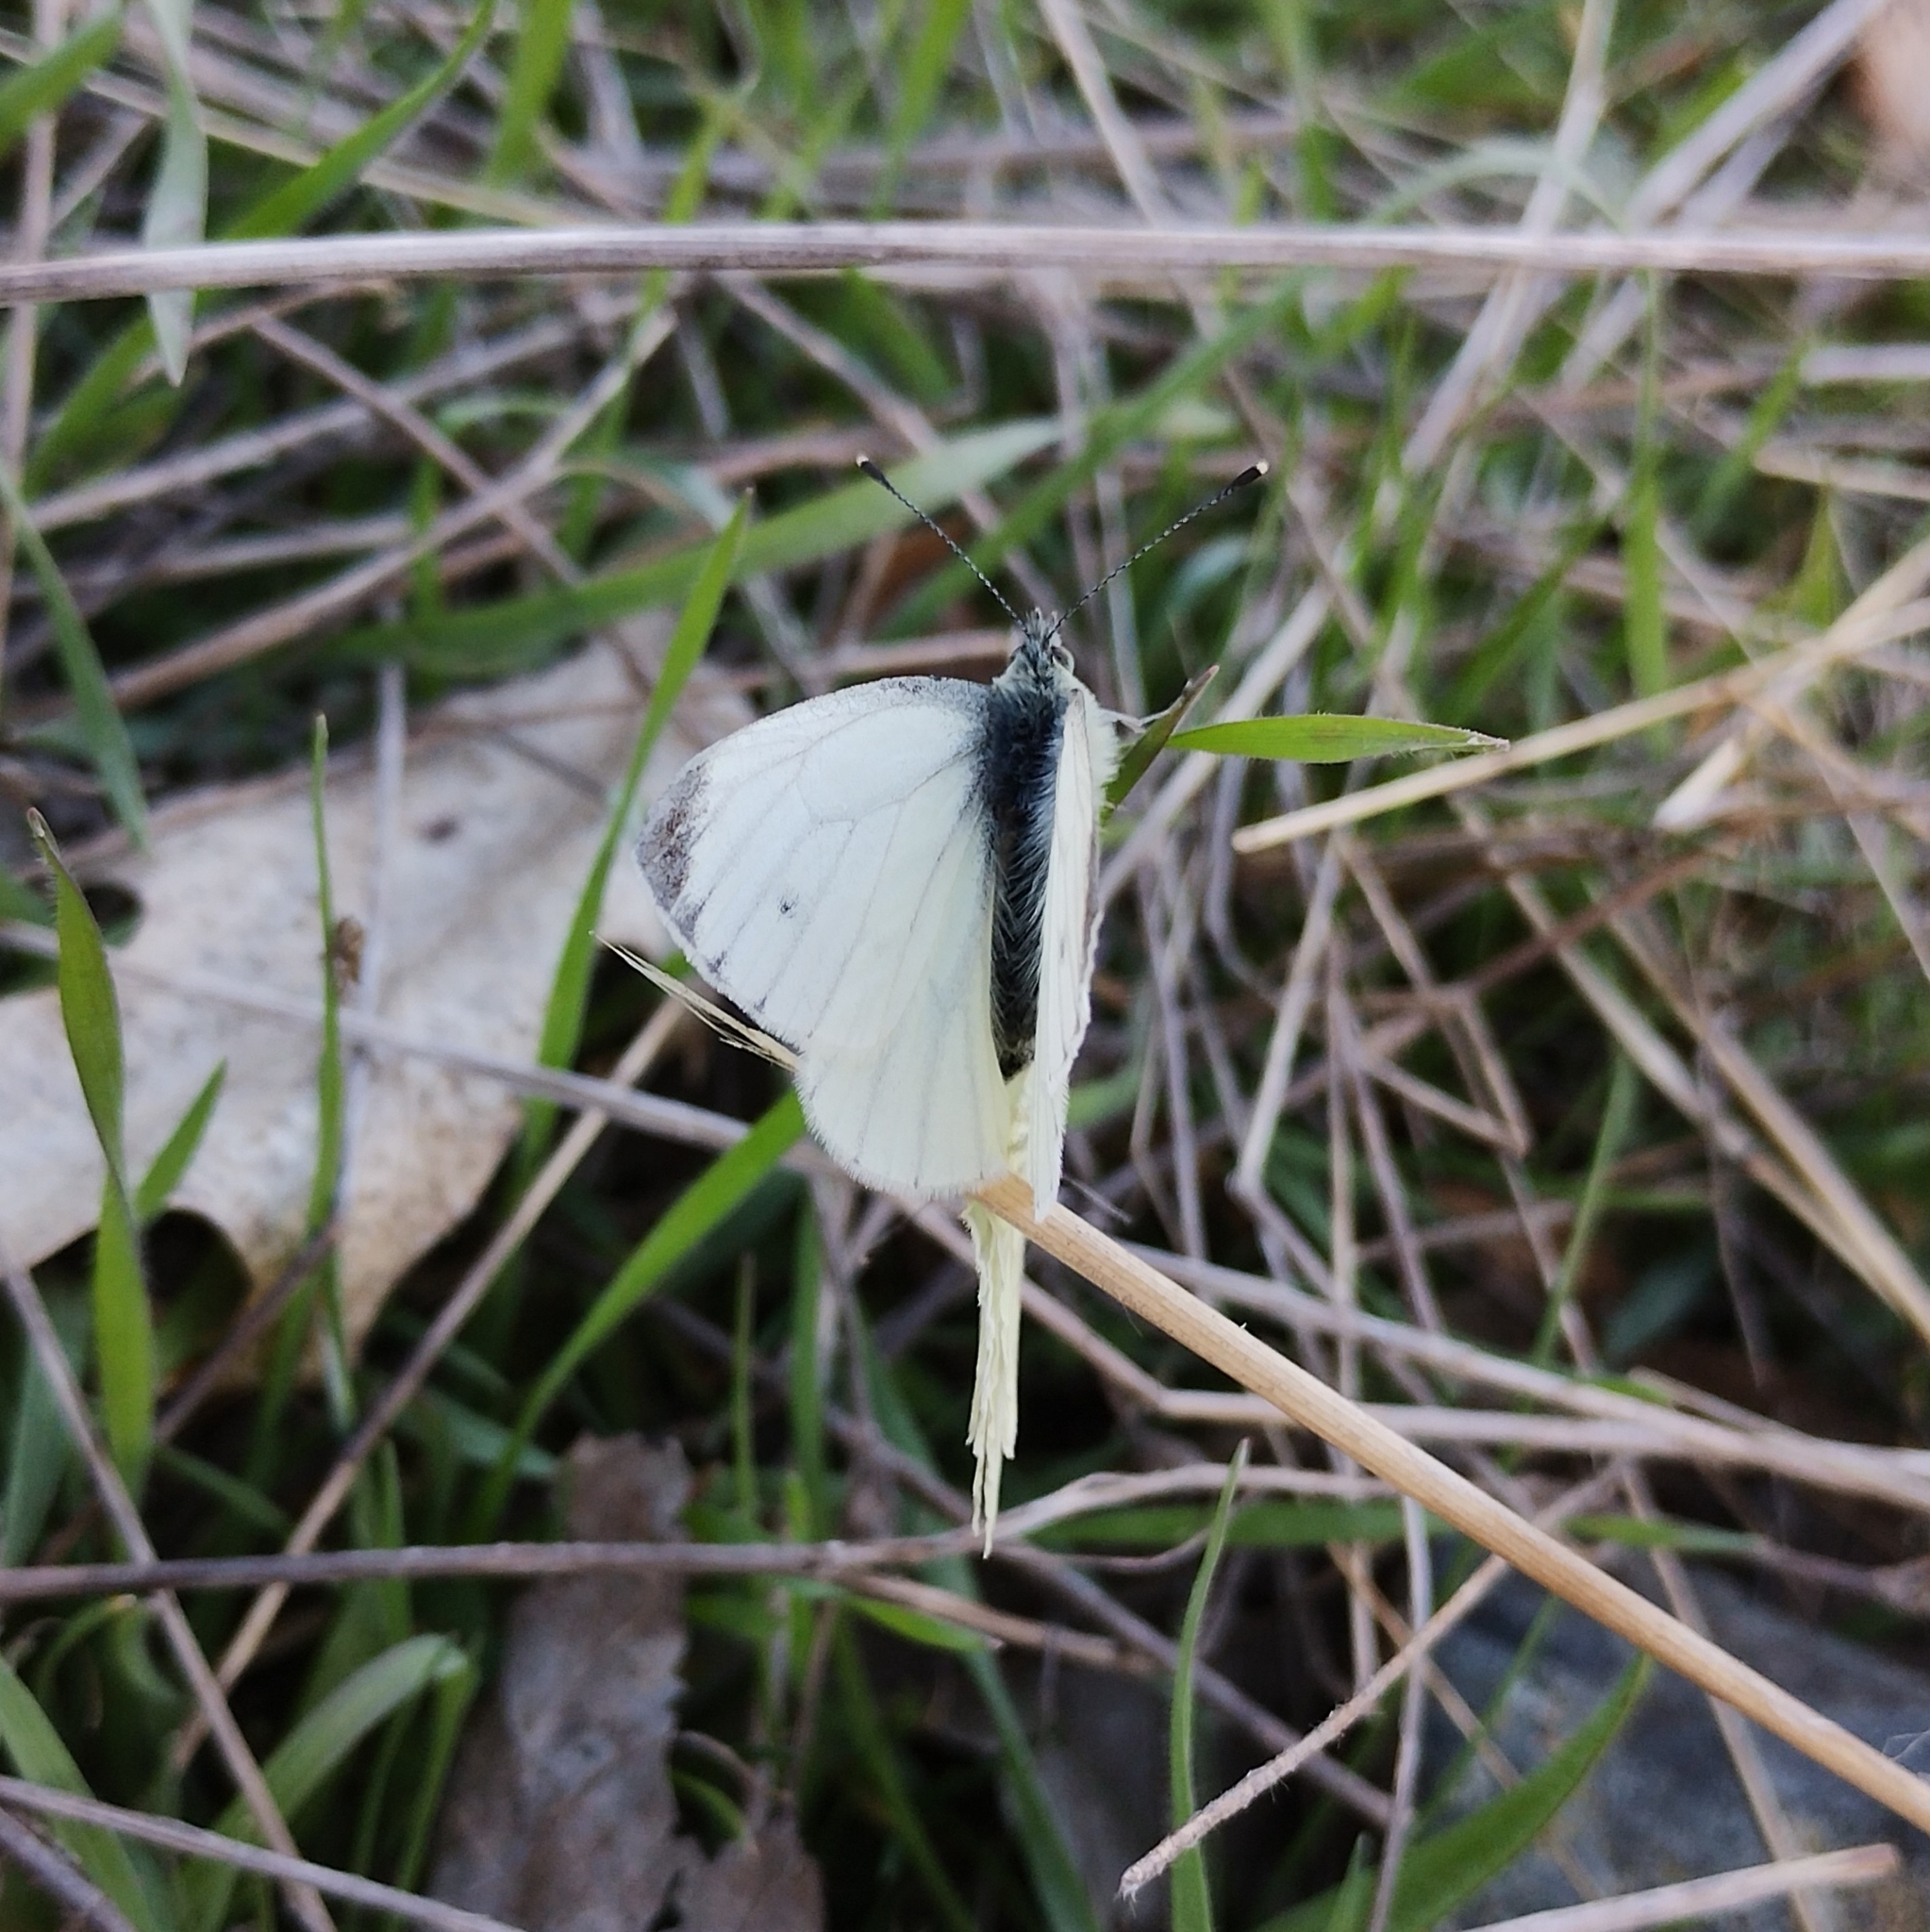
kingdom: Animalia
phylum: Arthropoda
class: Insecta
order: Lepidoptera
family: Pieridae
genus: Pieris
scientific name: Pieris napi
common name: Green-veined white
